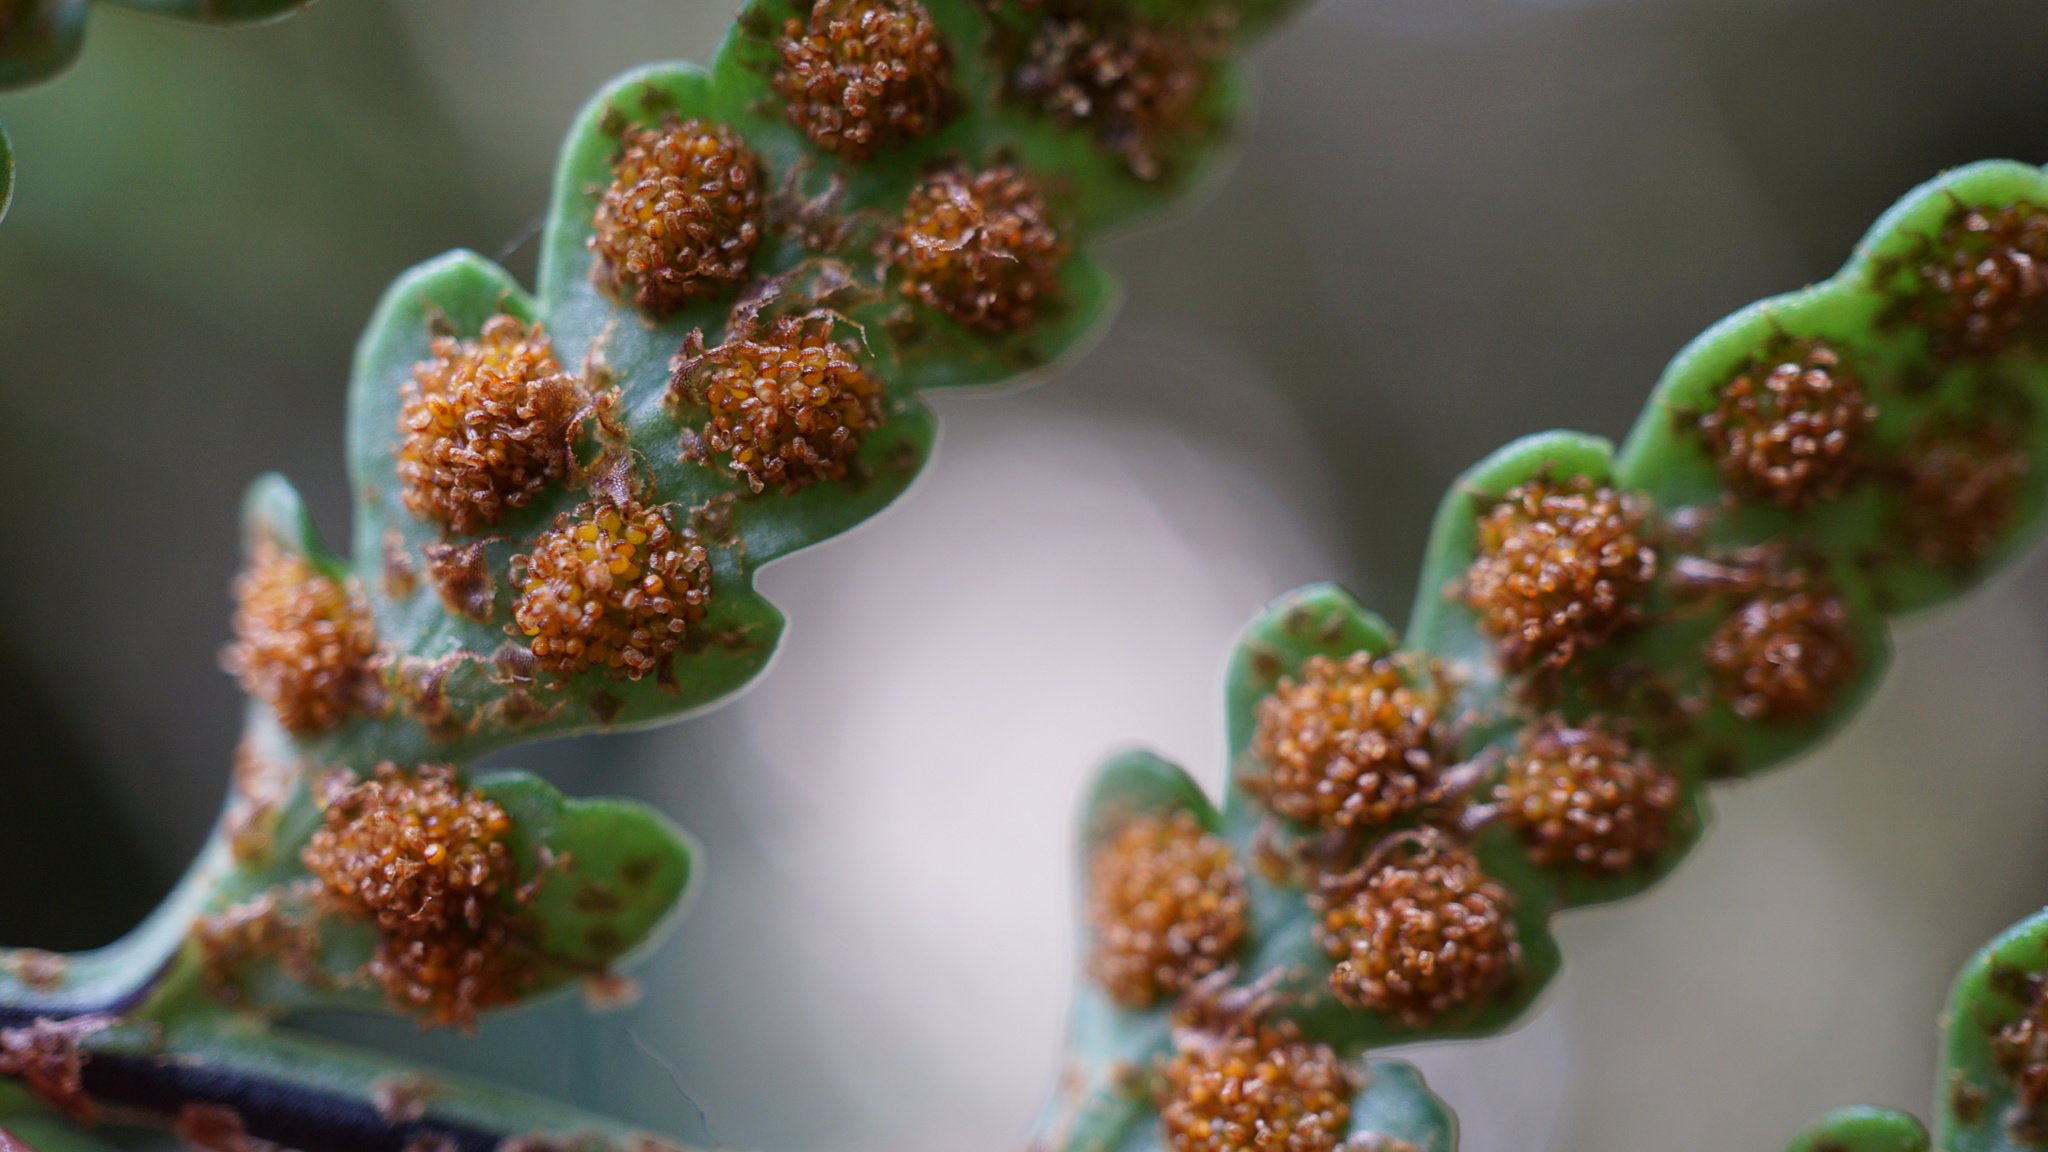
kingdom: Plantae
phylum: Tracheophyta
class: Polypodiopsida
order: Polypodiales
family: Polypodiaceae
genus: Pleopeltis
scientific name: Pleopeltis monosora
